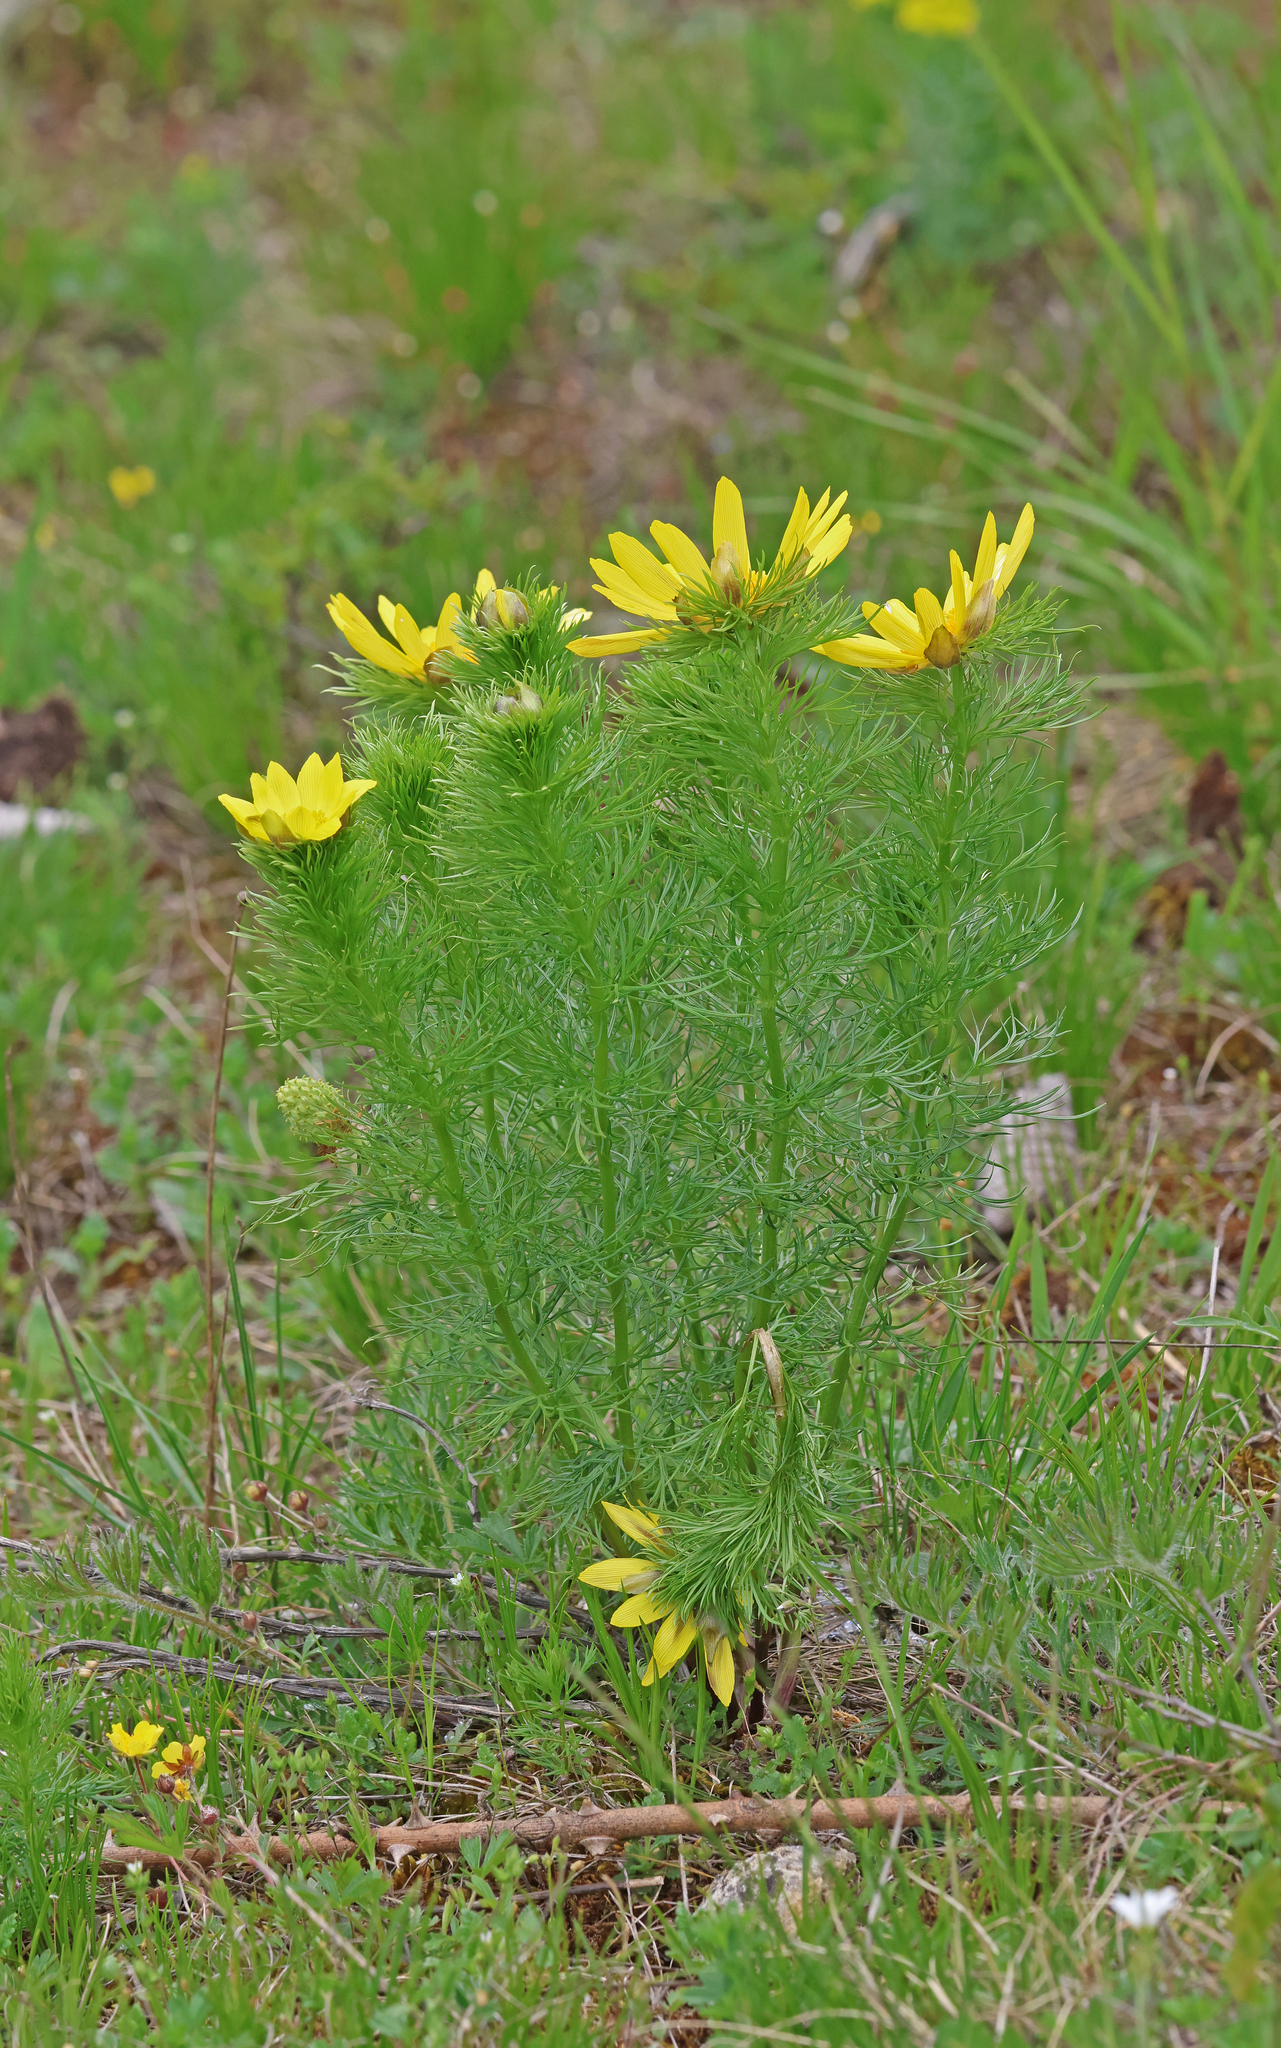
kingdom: Plantae
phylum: Tracheophyta
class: Magnoliopsida
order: Ranunculales
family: Ranunculaceae
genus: Adonis
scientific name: Adonis vernalis
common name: Yellow pheasants-eye
